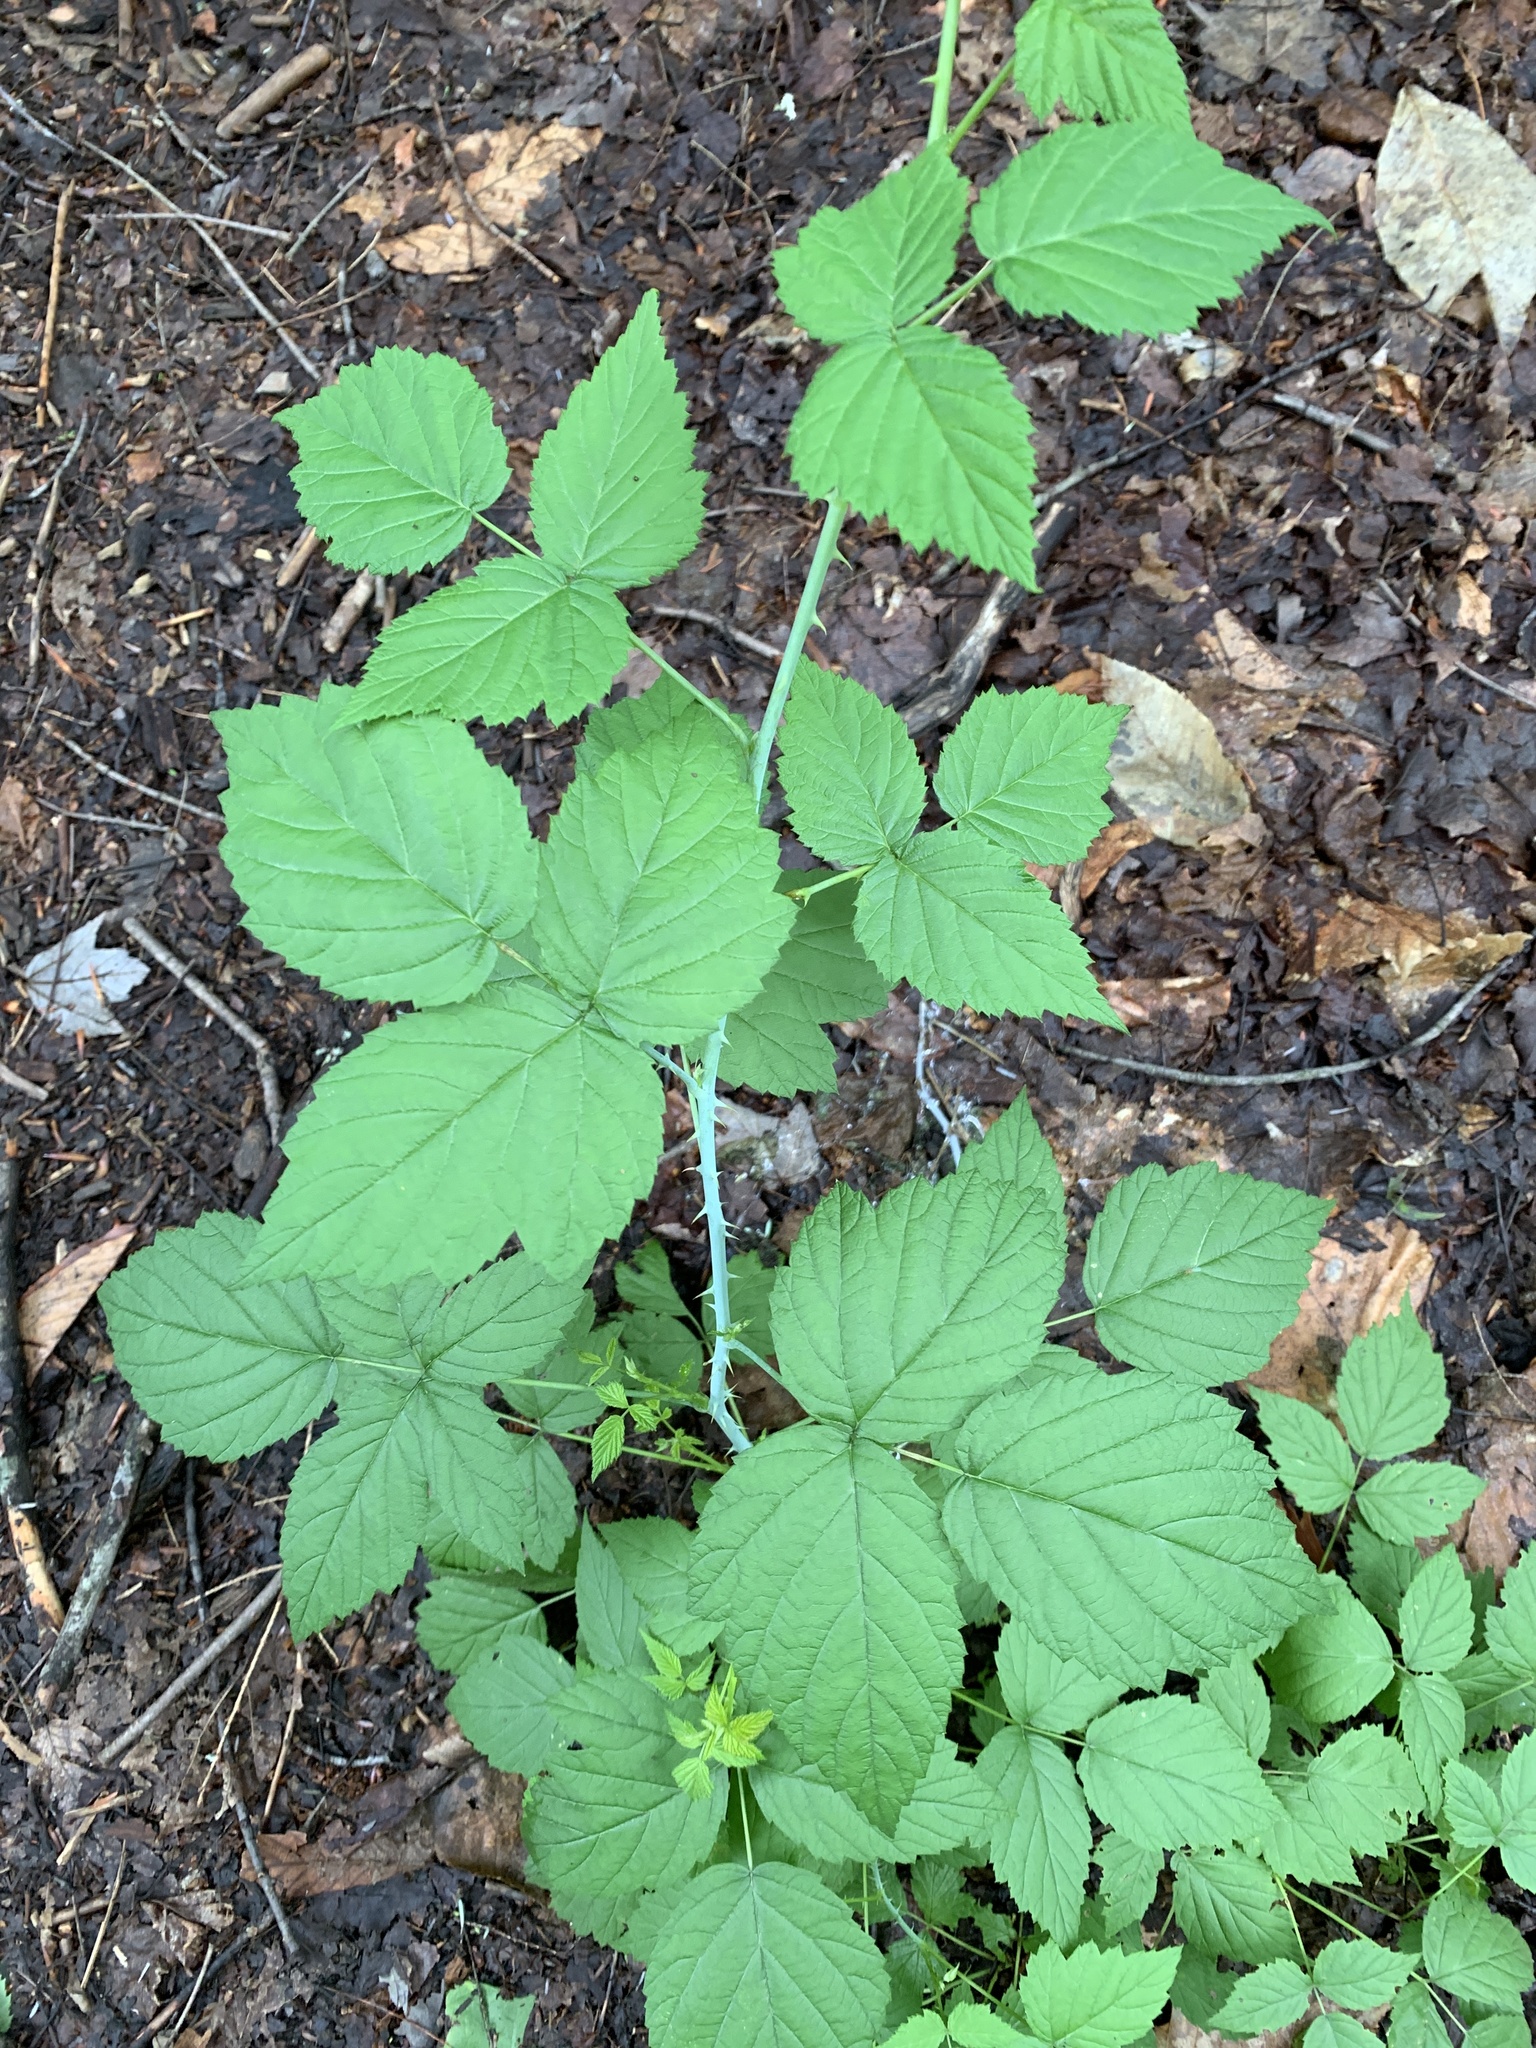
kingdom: Plantae
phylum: Tracheophyta
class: Magnoliopsida
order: Rosales
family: Rosaceae
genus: Rubus
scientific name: Rubus occidentalis
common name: Black raspberry
